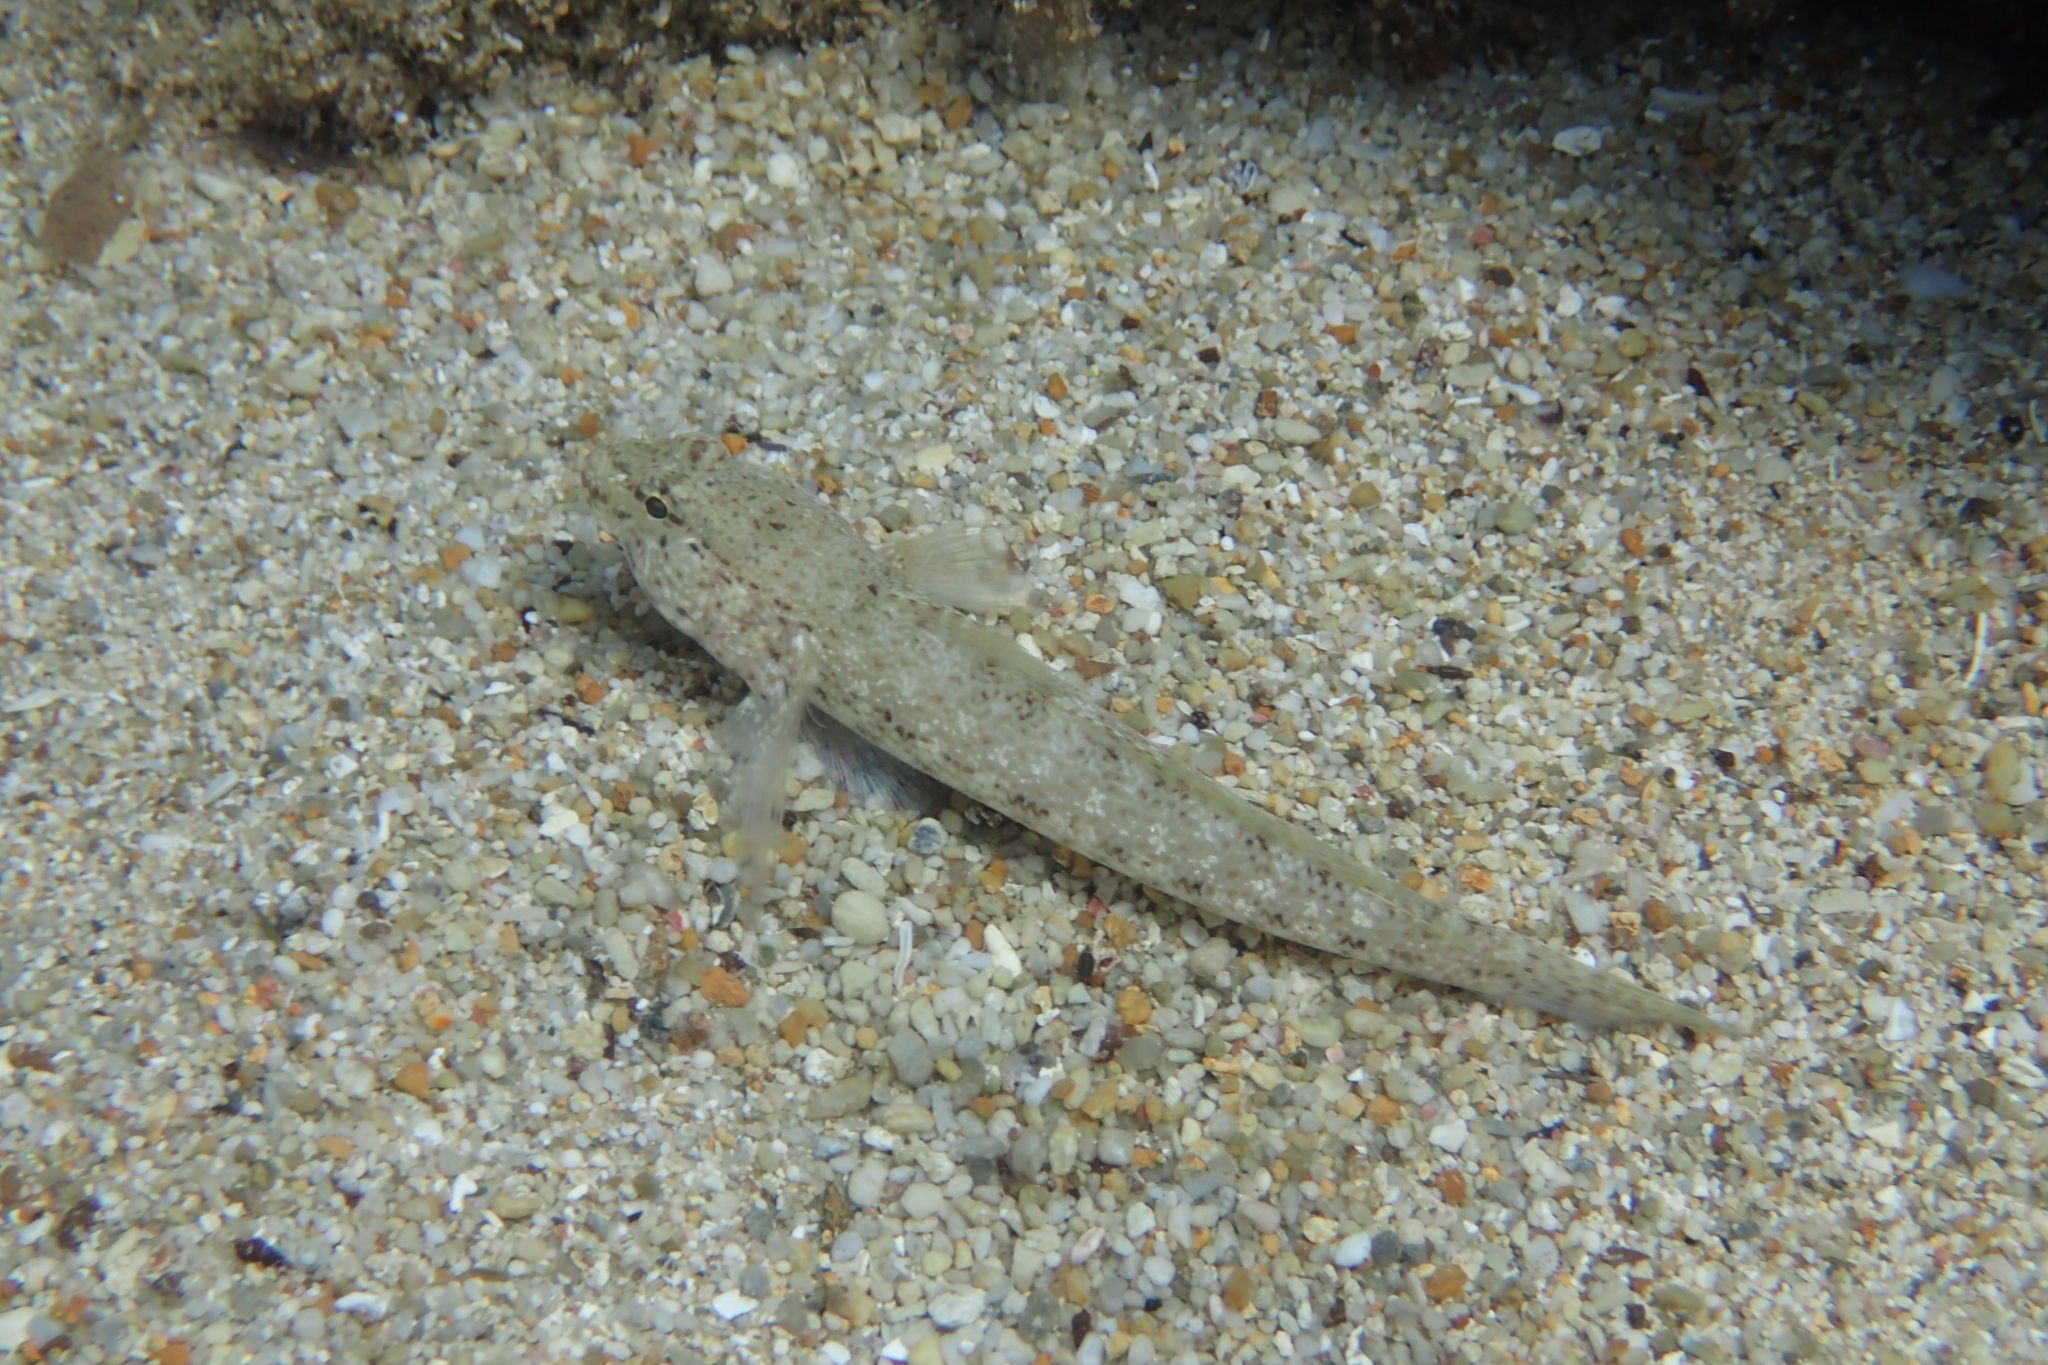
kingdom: Animalia
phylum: Chordata
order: Perciformes
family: Gobiidae
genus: Gobius
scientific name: Gobius incognitus
